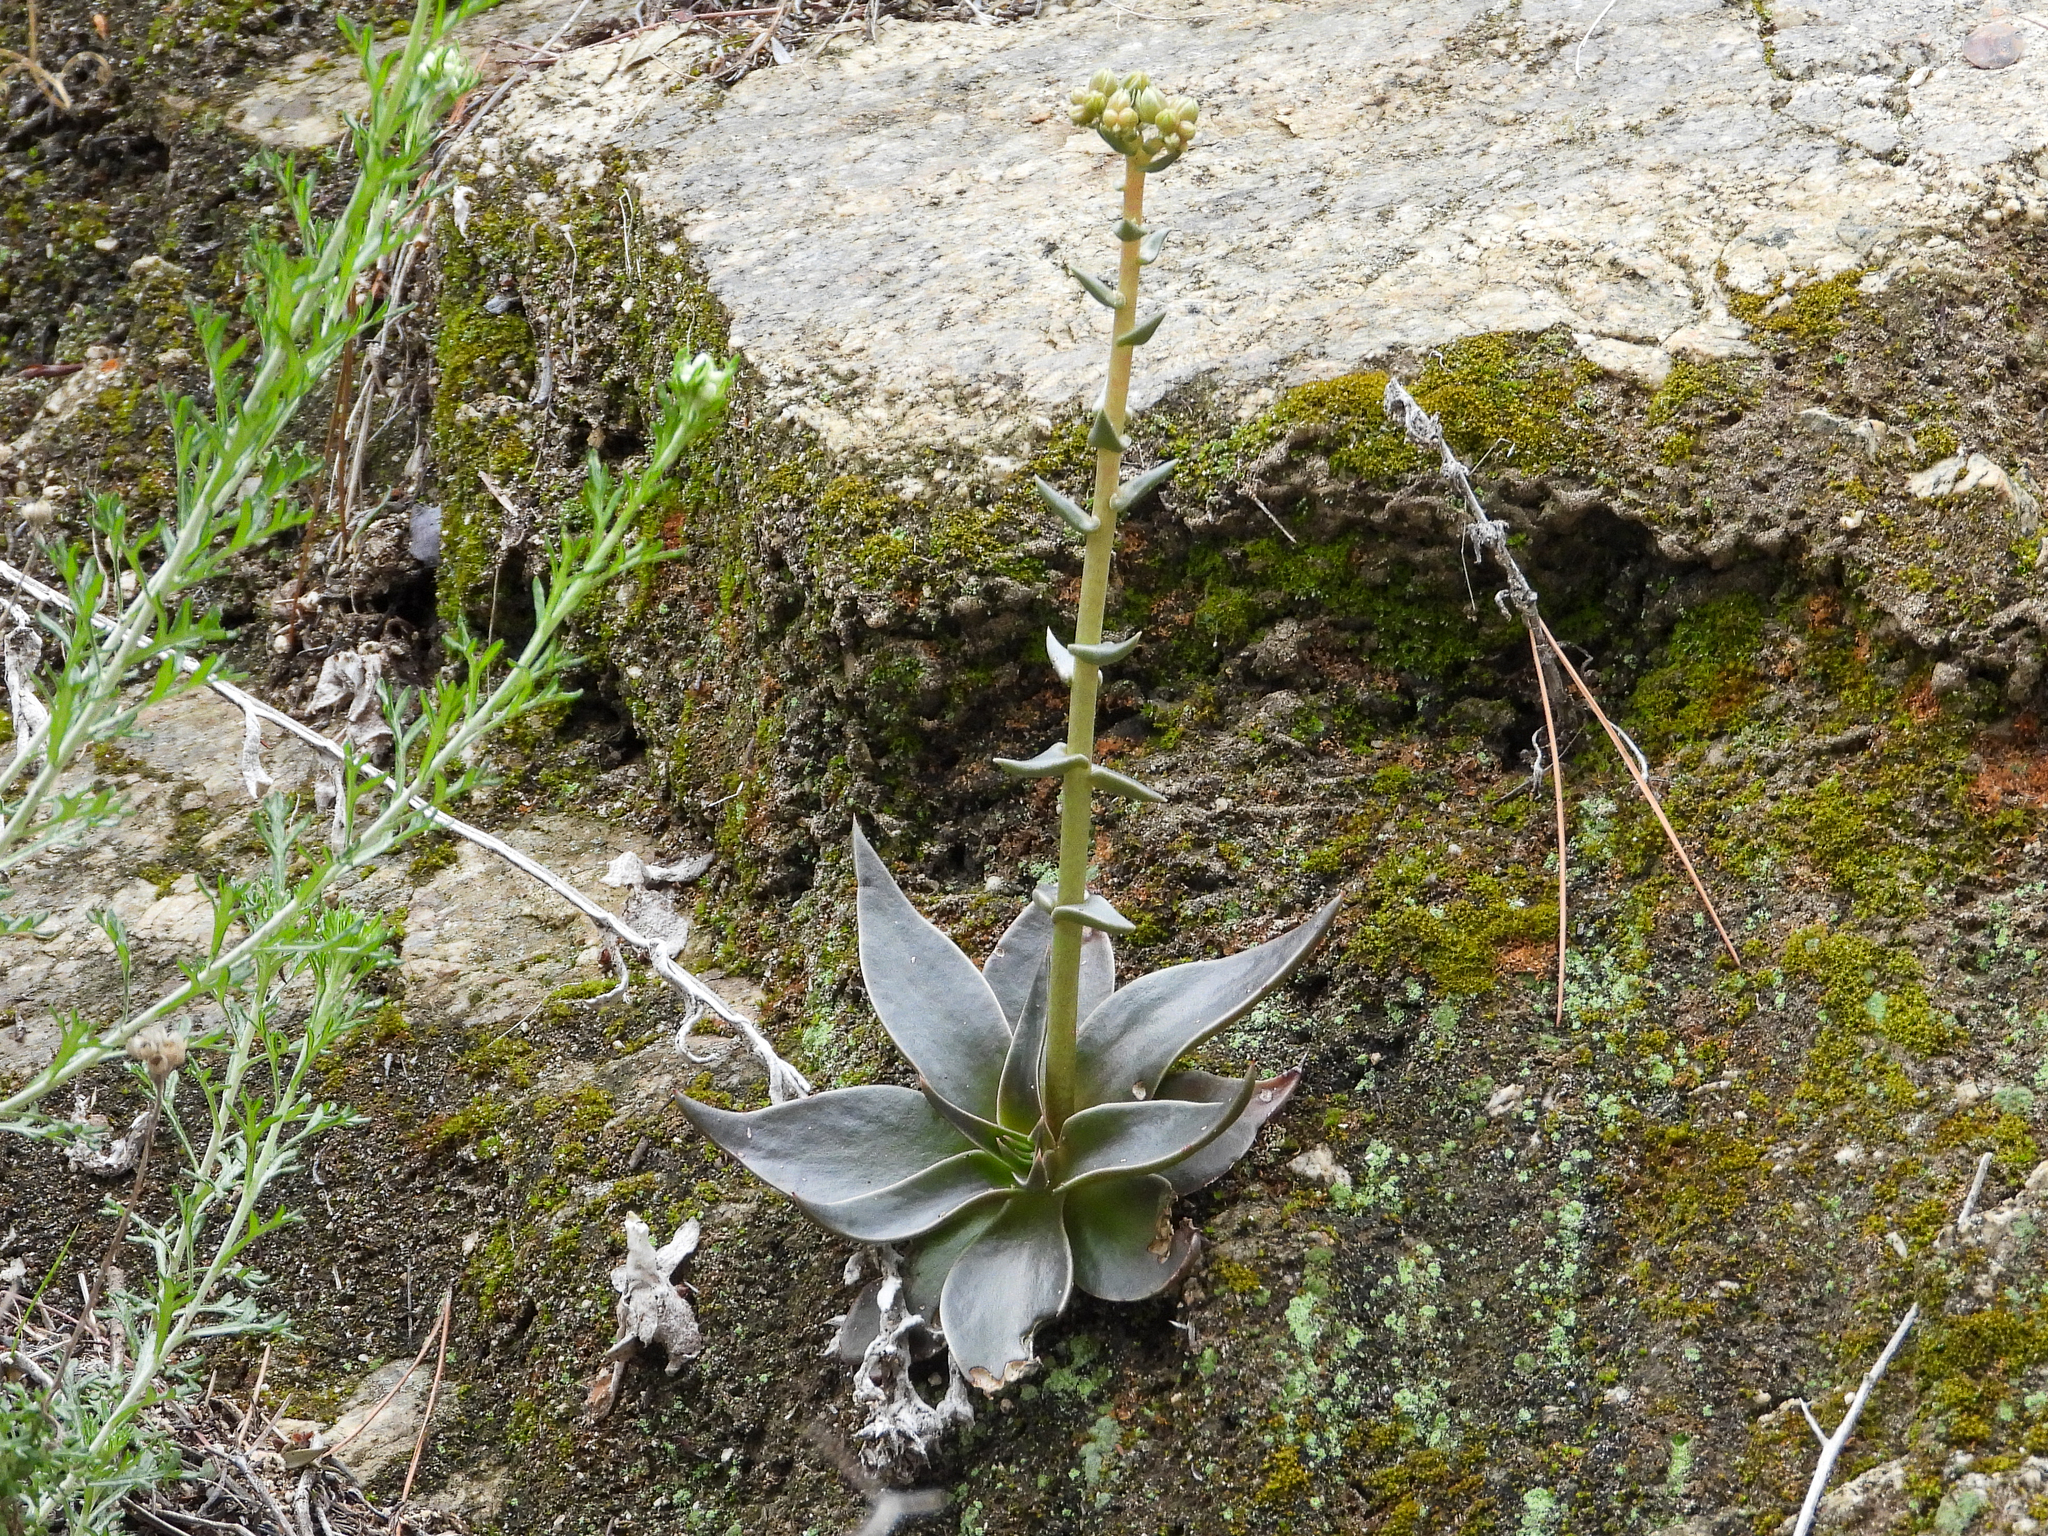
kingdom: Plantae
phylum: Tracheophyta
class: Magnoliopsida
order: Saxifragales
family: Crassulaceae
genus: Dudleya
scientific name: Dudleya lanceolata
